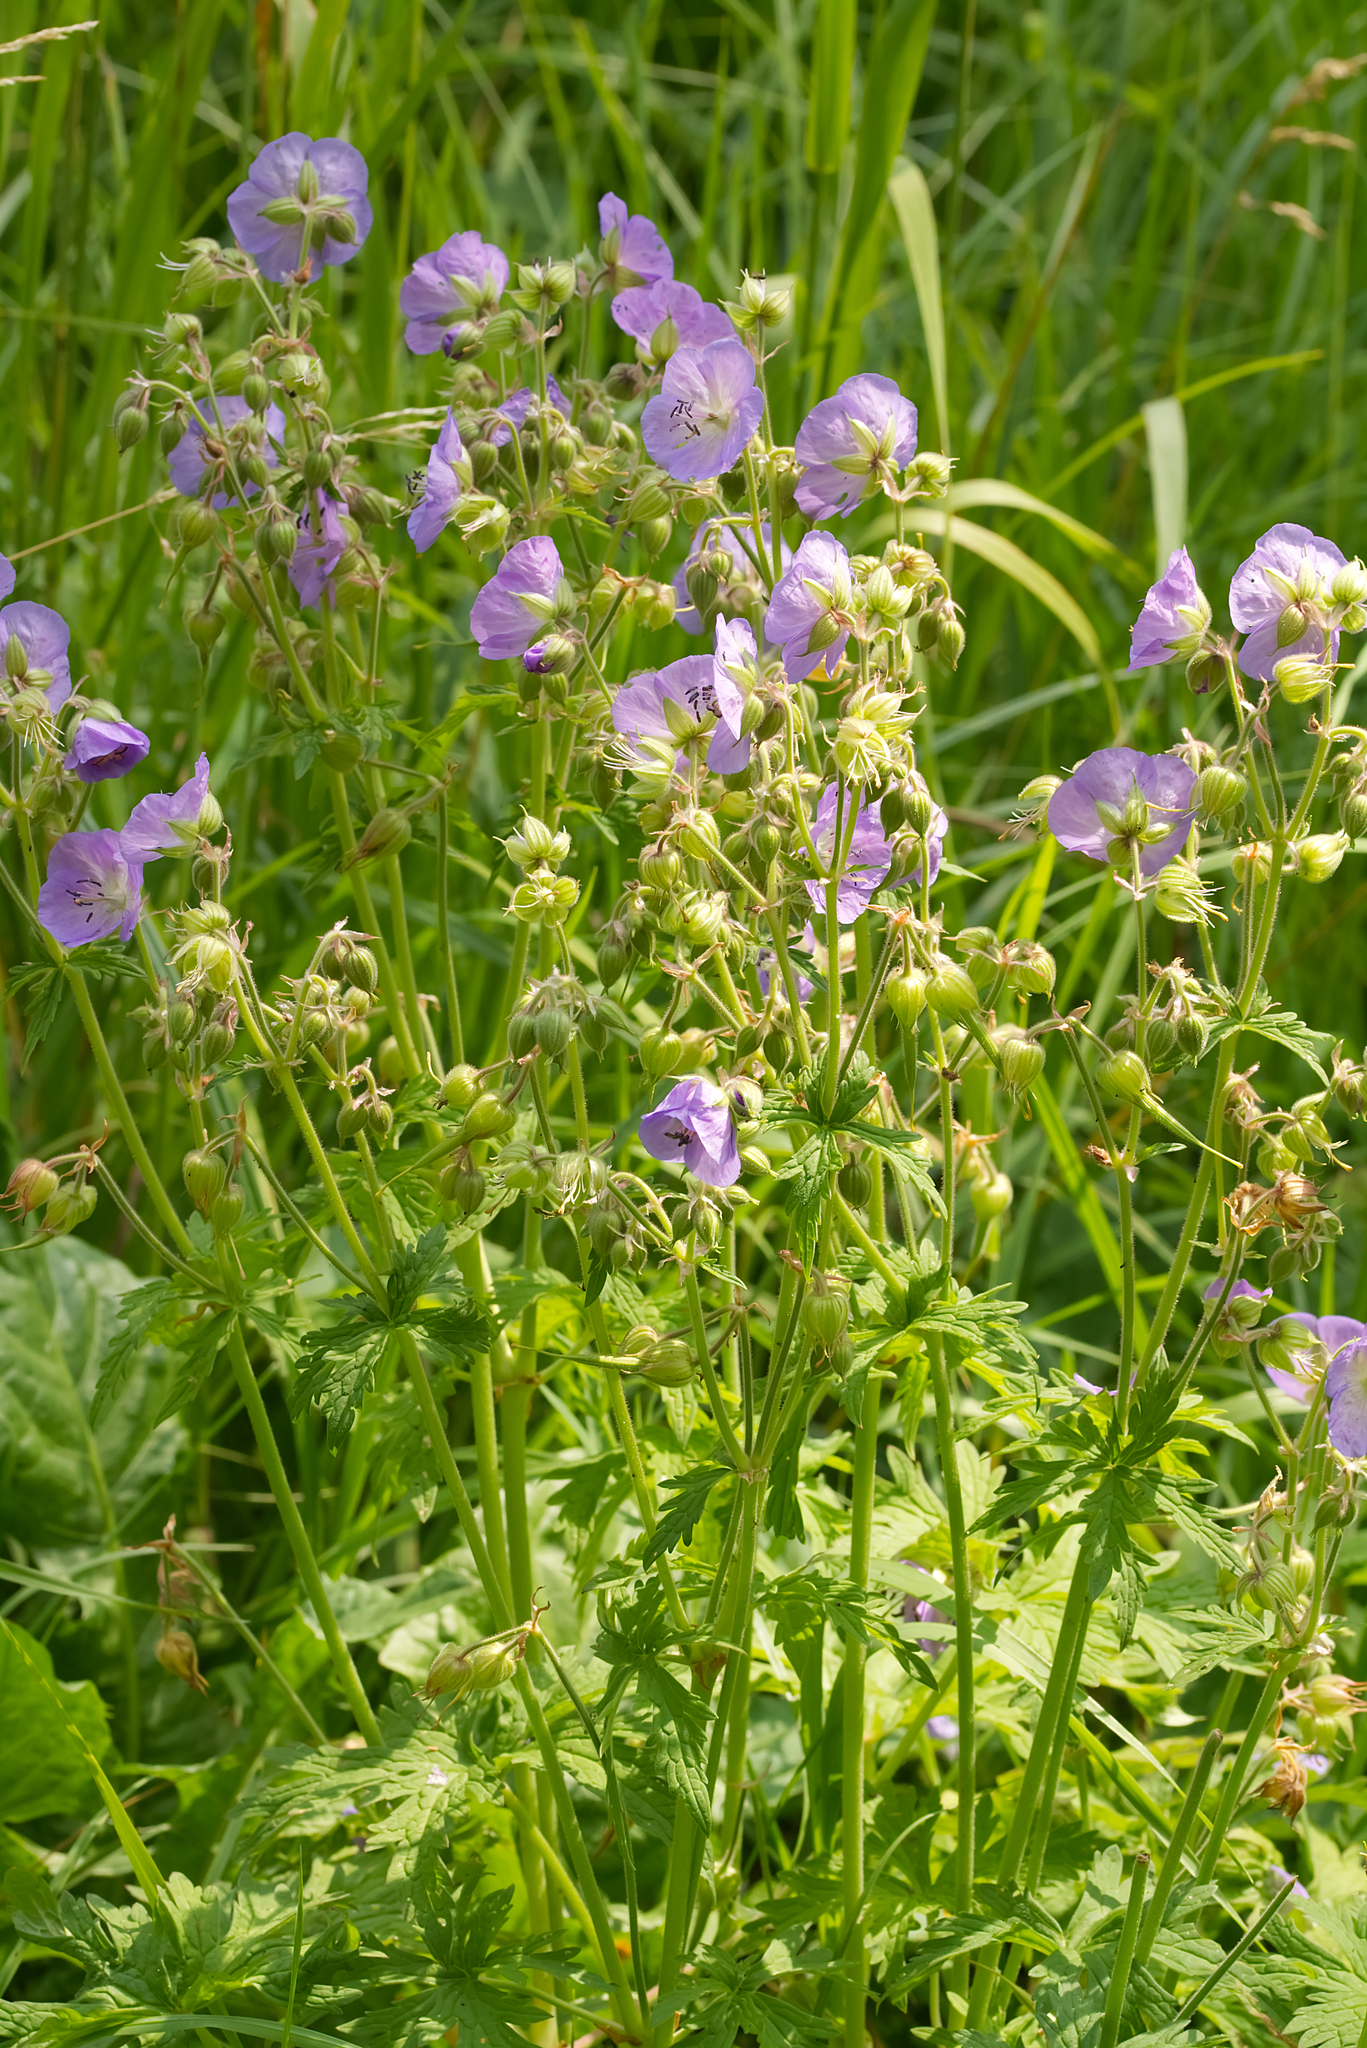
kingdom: Plantae
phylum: Tracheophyta
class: Magnoliopsida
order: Geraniales
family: Geraniaceae
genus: Geranium
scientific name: Geranium pratense
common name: Meadow crane's-bill
